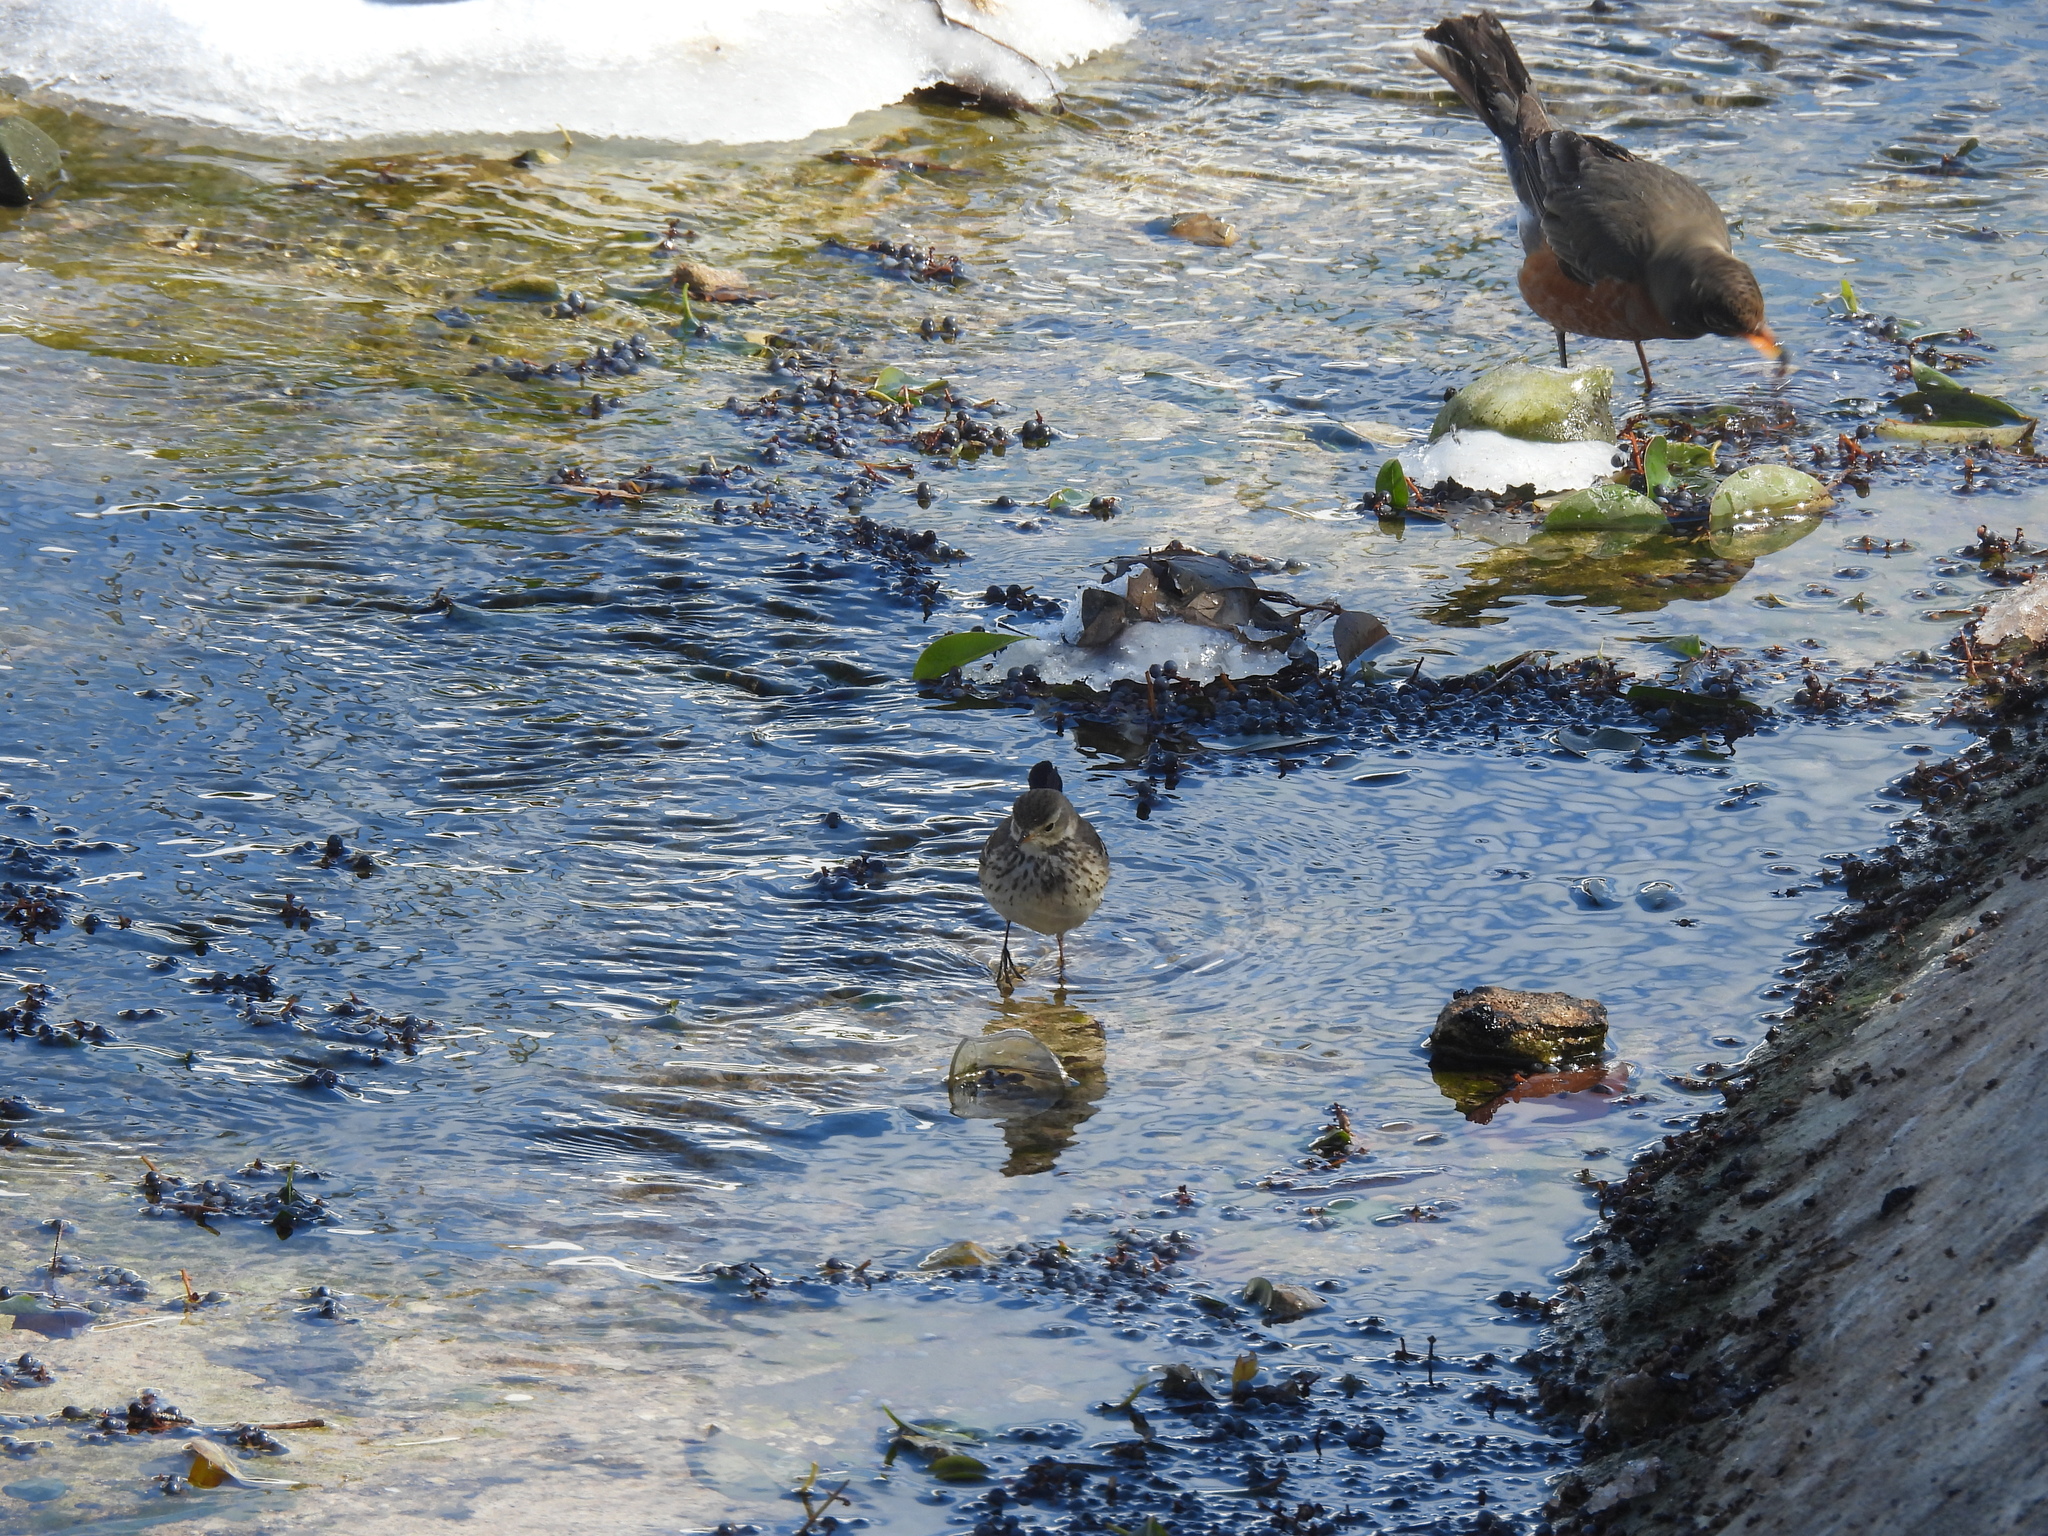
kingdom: Animalia
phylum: Chordata
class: Aves
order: Passeriformes
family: Motacillidae
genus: Anthus
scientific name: Anthus rubescens
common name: Buff-bellied pipit
